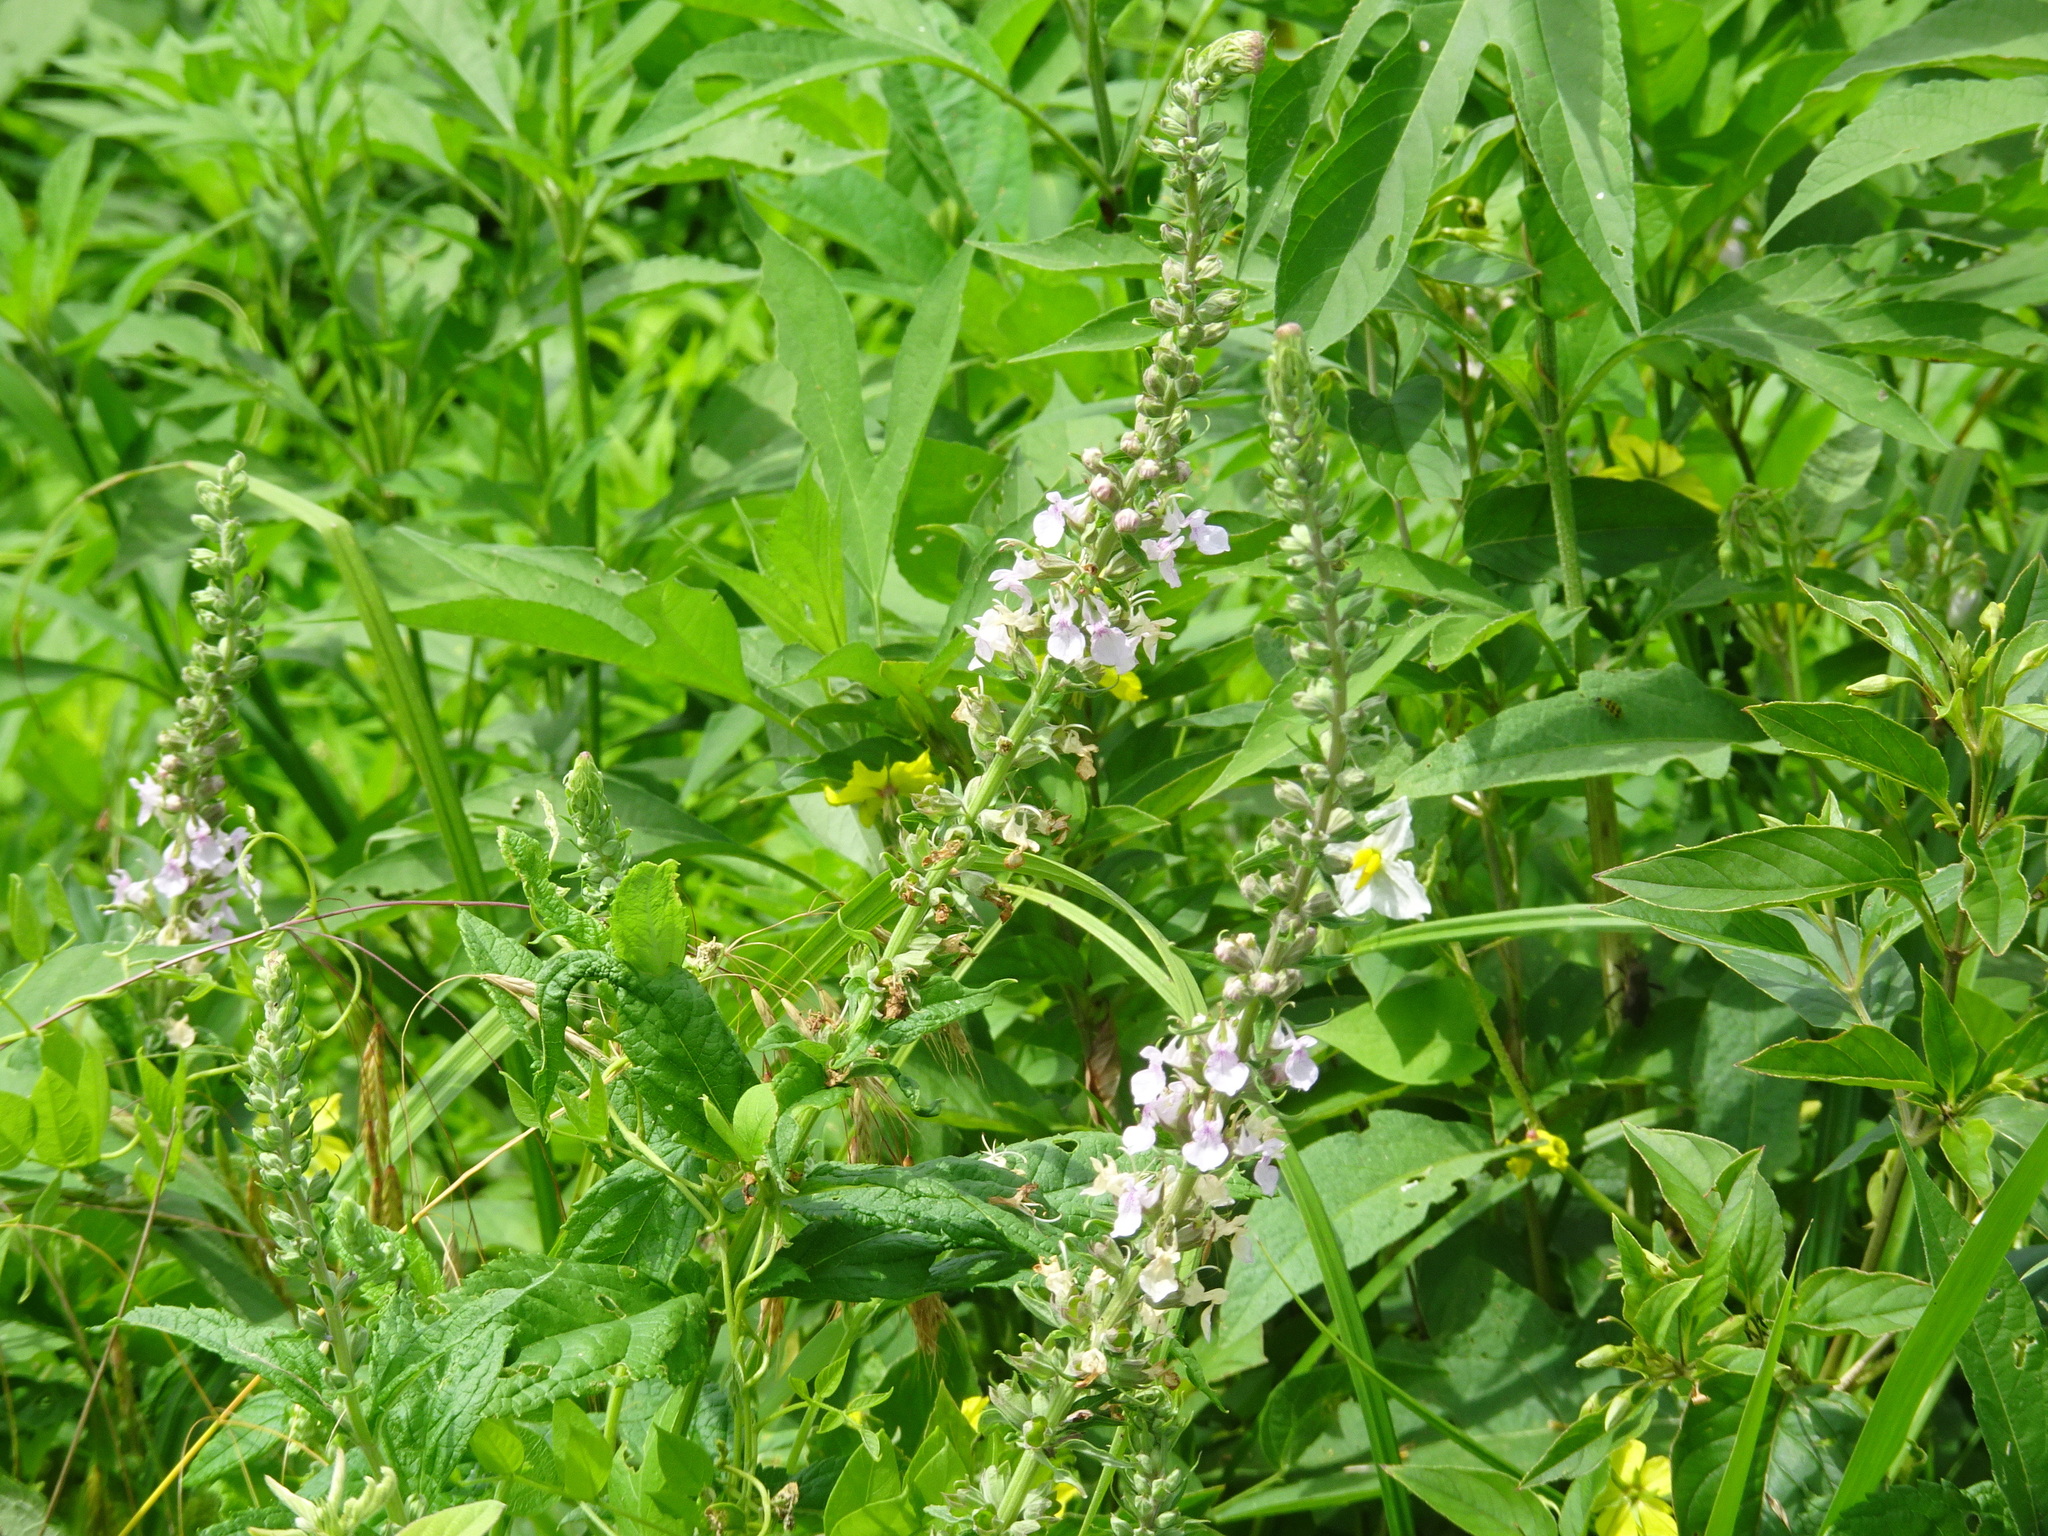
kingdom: Plantae
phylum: Tracheophyta
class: Magnoliopsida
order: Lamiales
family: Lamiaceae
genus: Teucrium
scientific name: Teucrium canadense
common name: American germander
